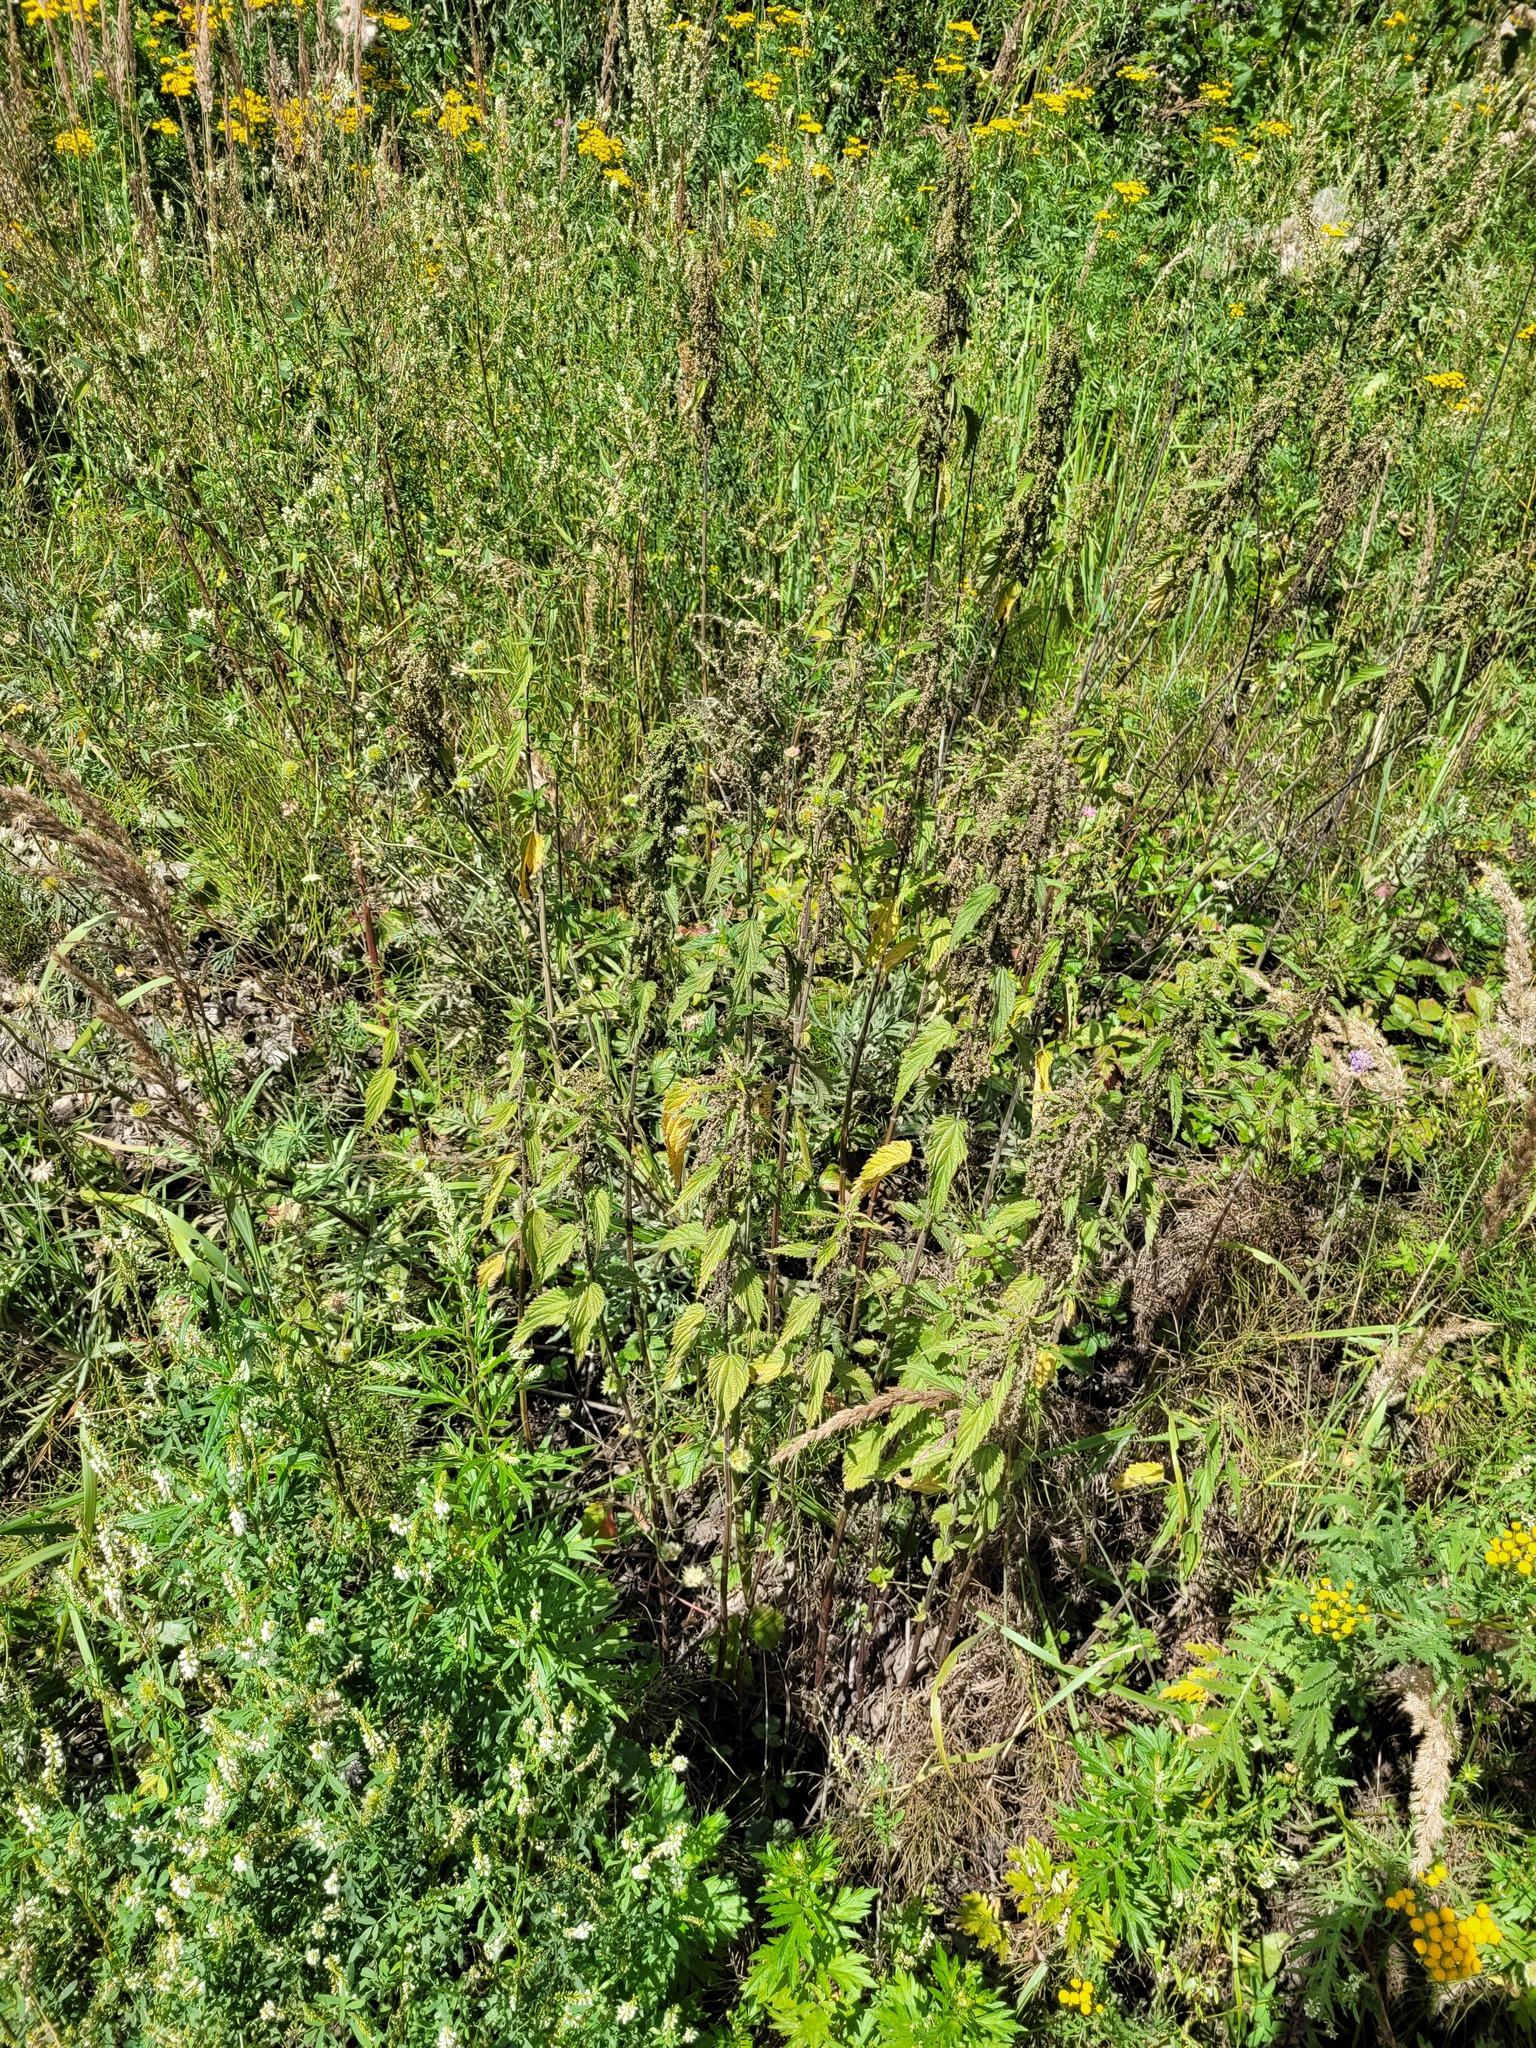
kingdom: Plantae
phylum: Tracheophyta
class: Magnoliopsida
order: Rosales
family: Urticaceae
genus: Urtica
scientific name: Urtica dioica
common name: Common nettle
